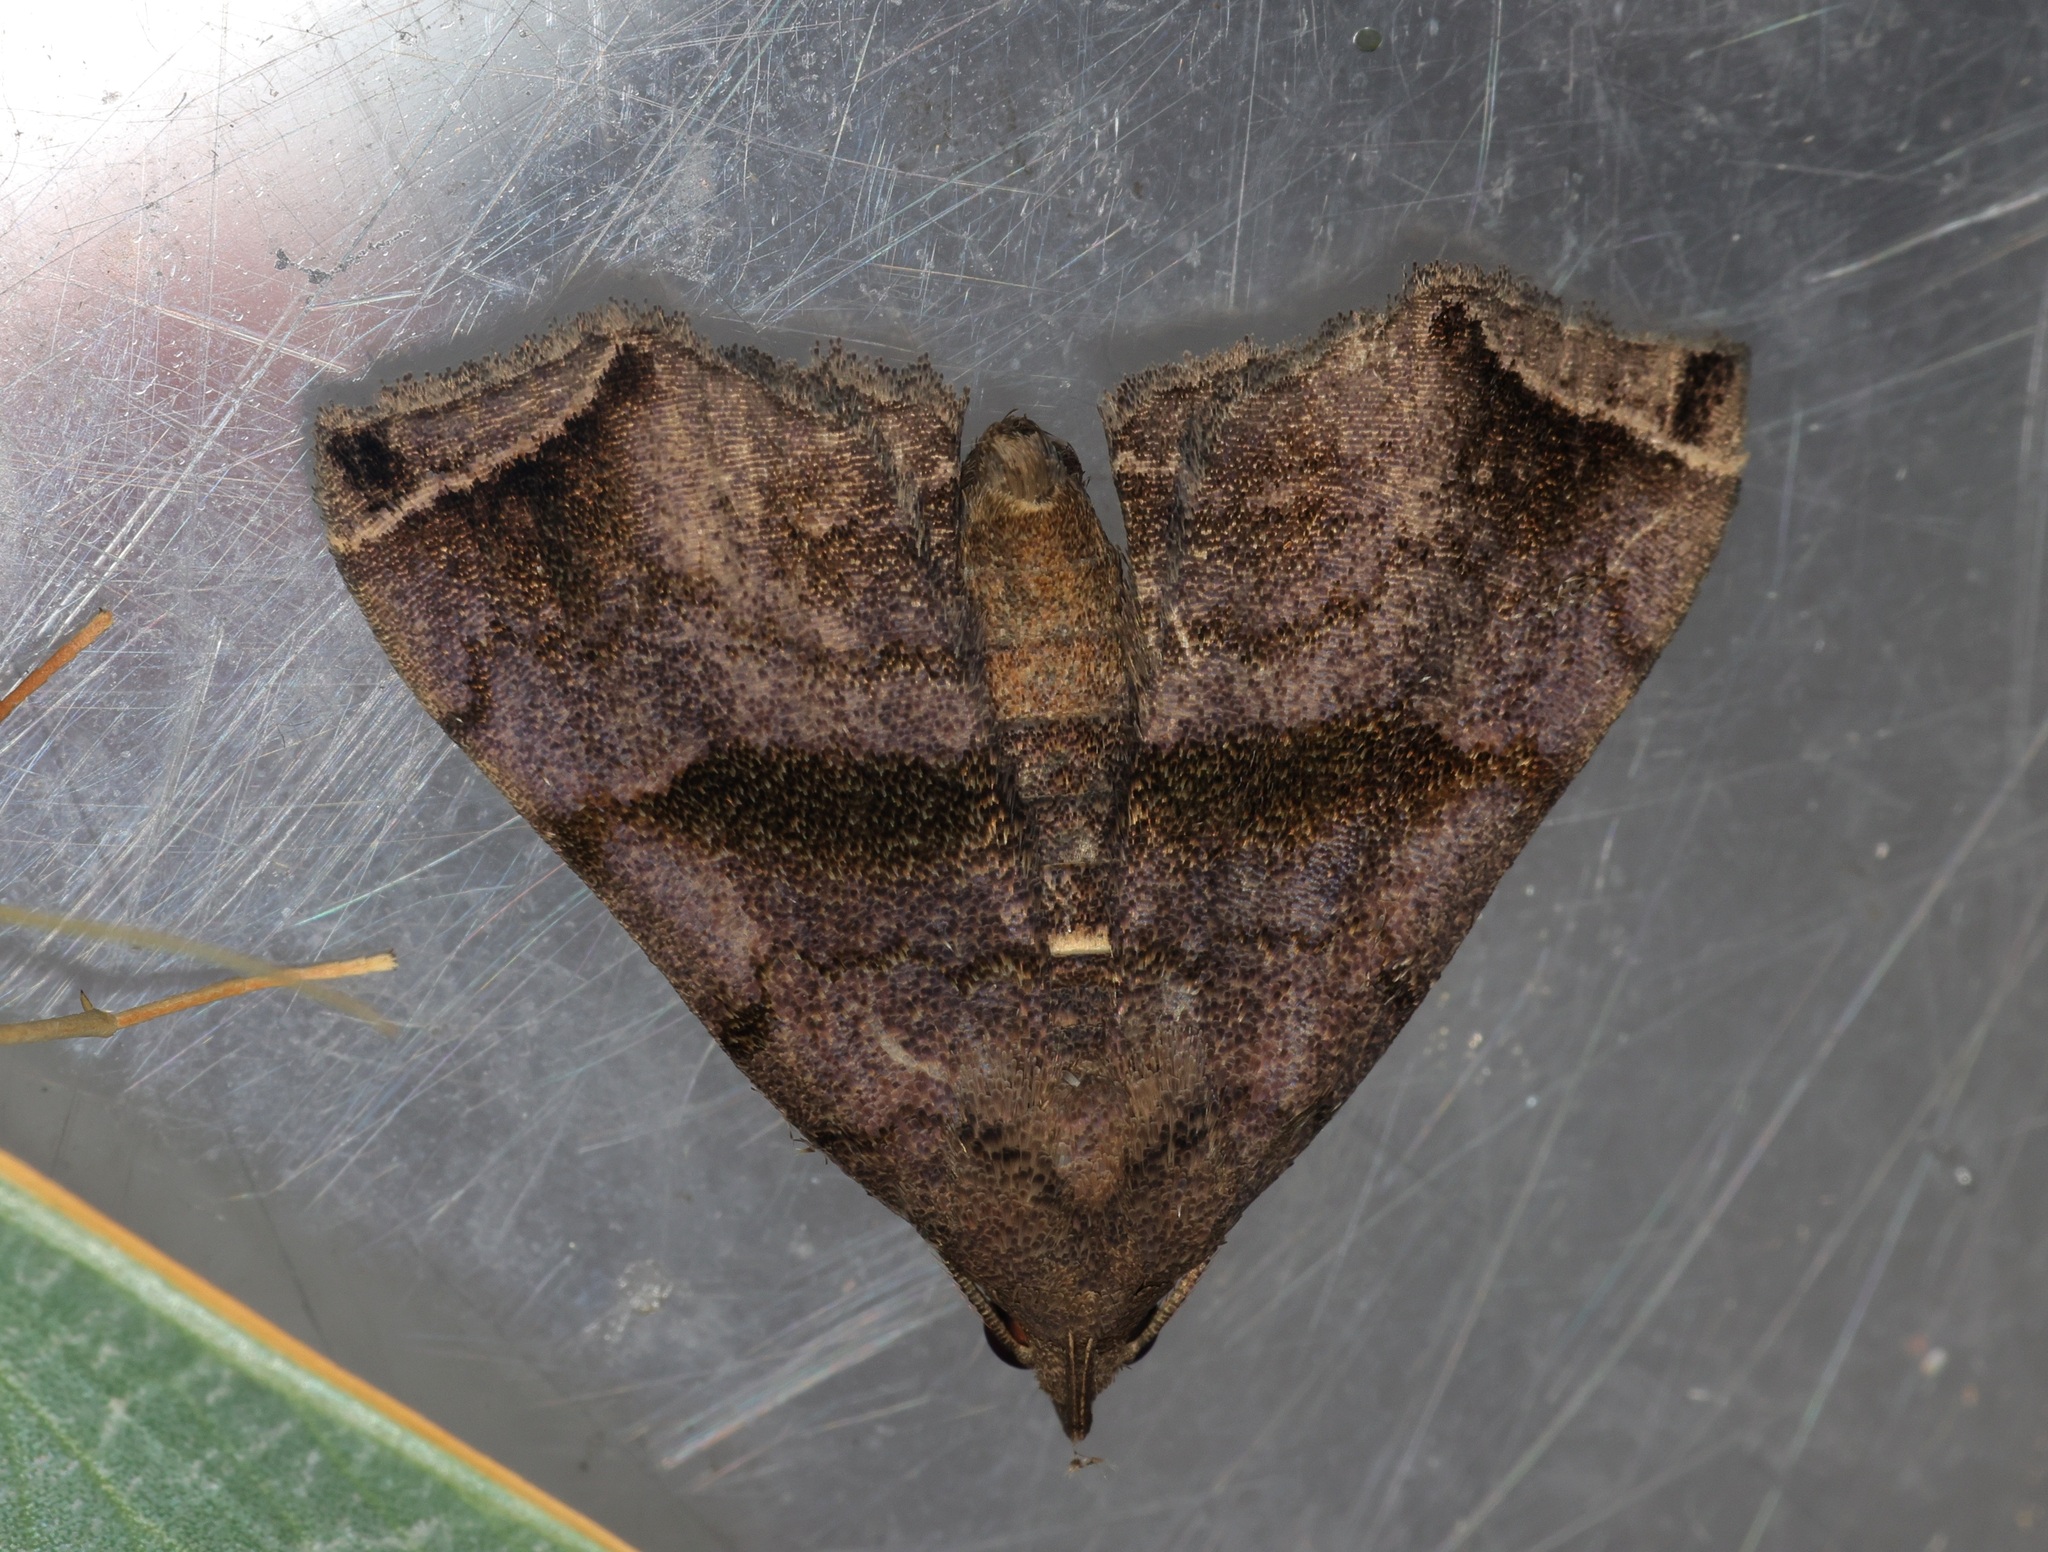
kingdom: Animalia
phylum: Arthropoda
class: Insecta
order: Lepidoptera
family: Erebidae
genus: Polypogon
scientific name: Polypogon biasalis
